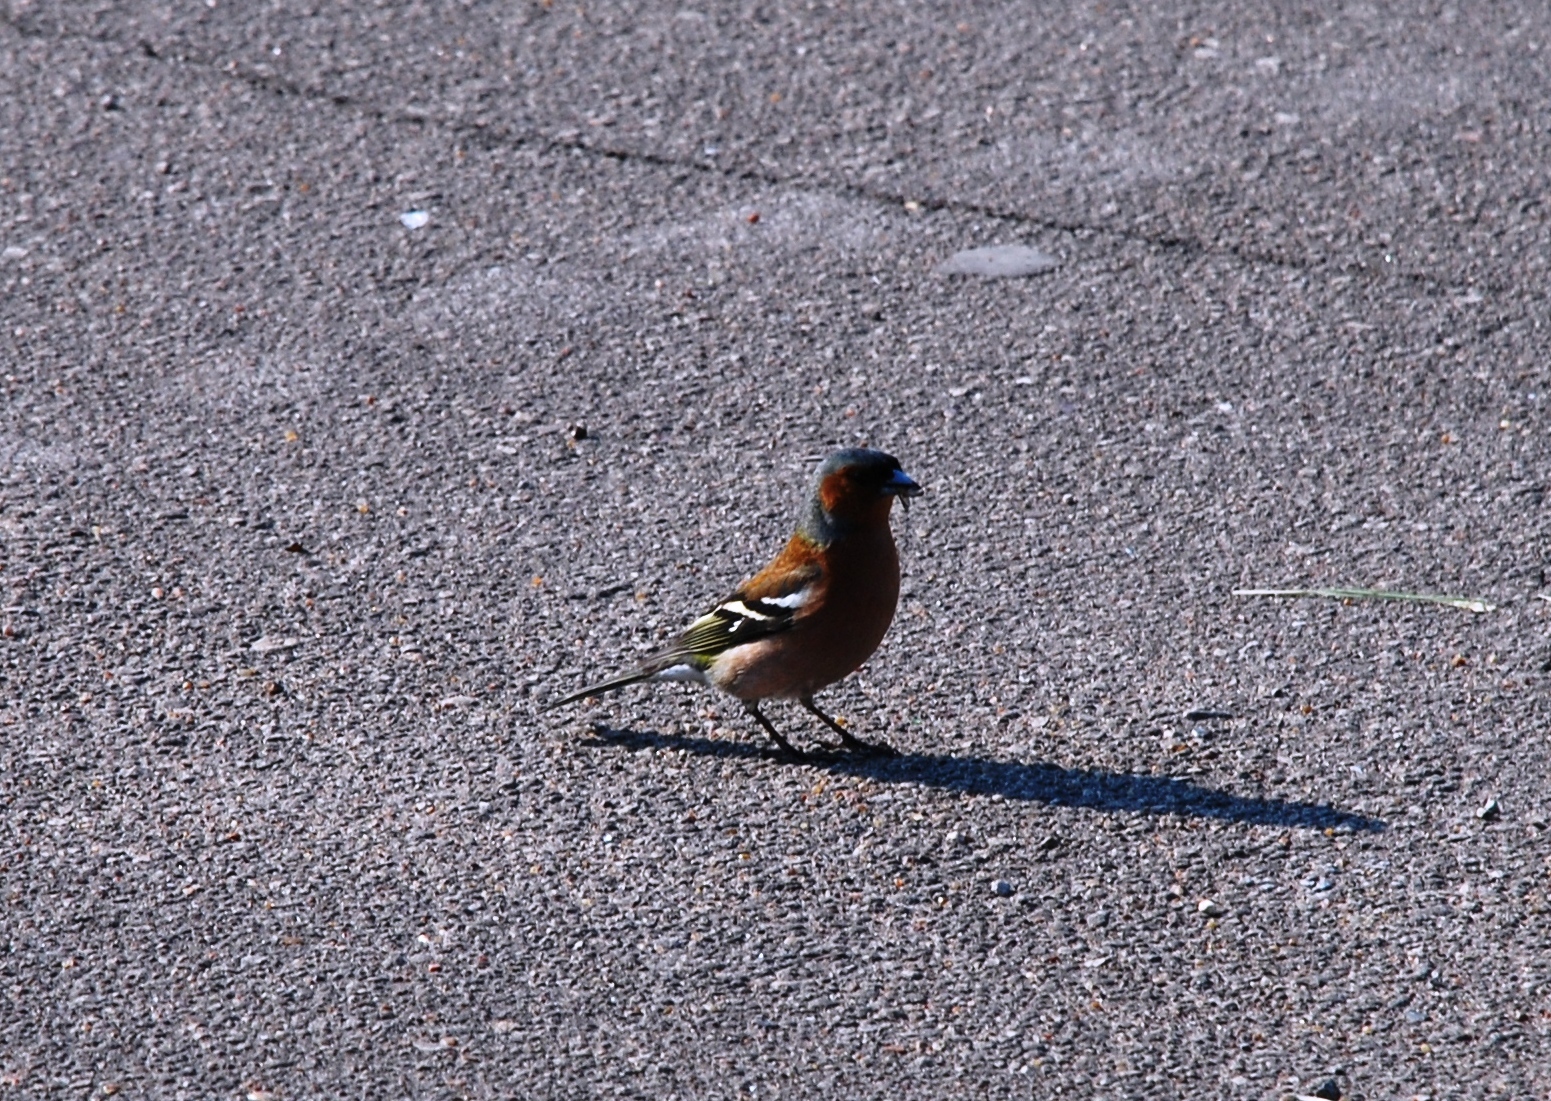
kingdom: Animalia
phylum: Chordata
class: Aves
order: Passeriformes
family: Fringillidae
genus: Fringilla
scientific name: Fringilla coelebs
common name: Common chaffinch
